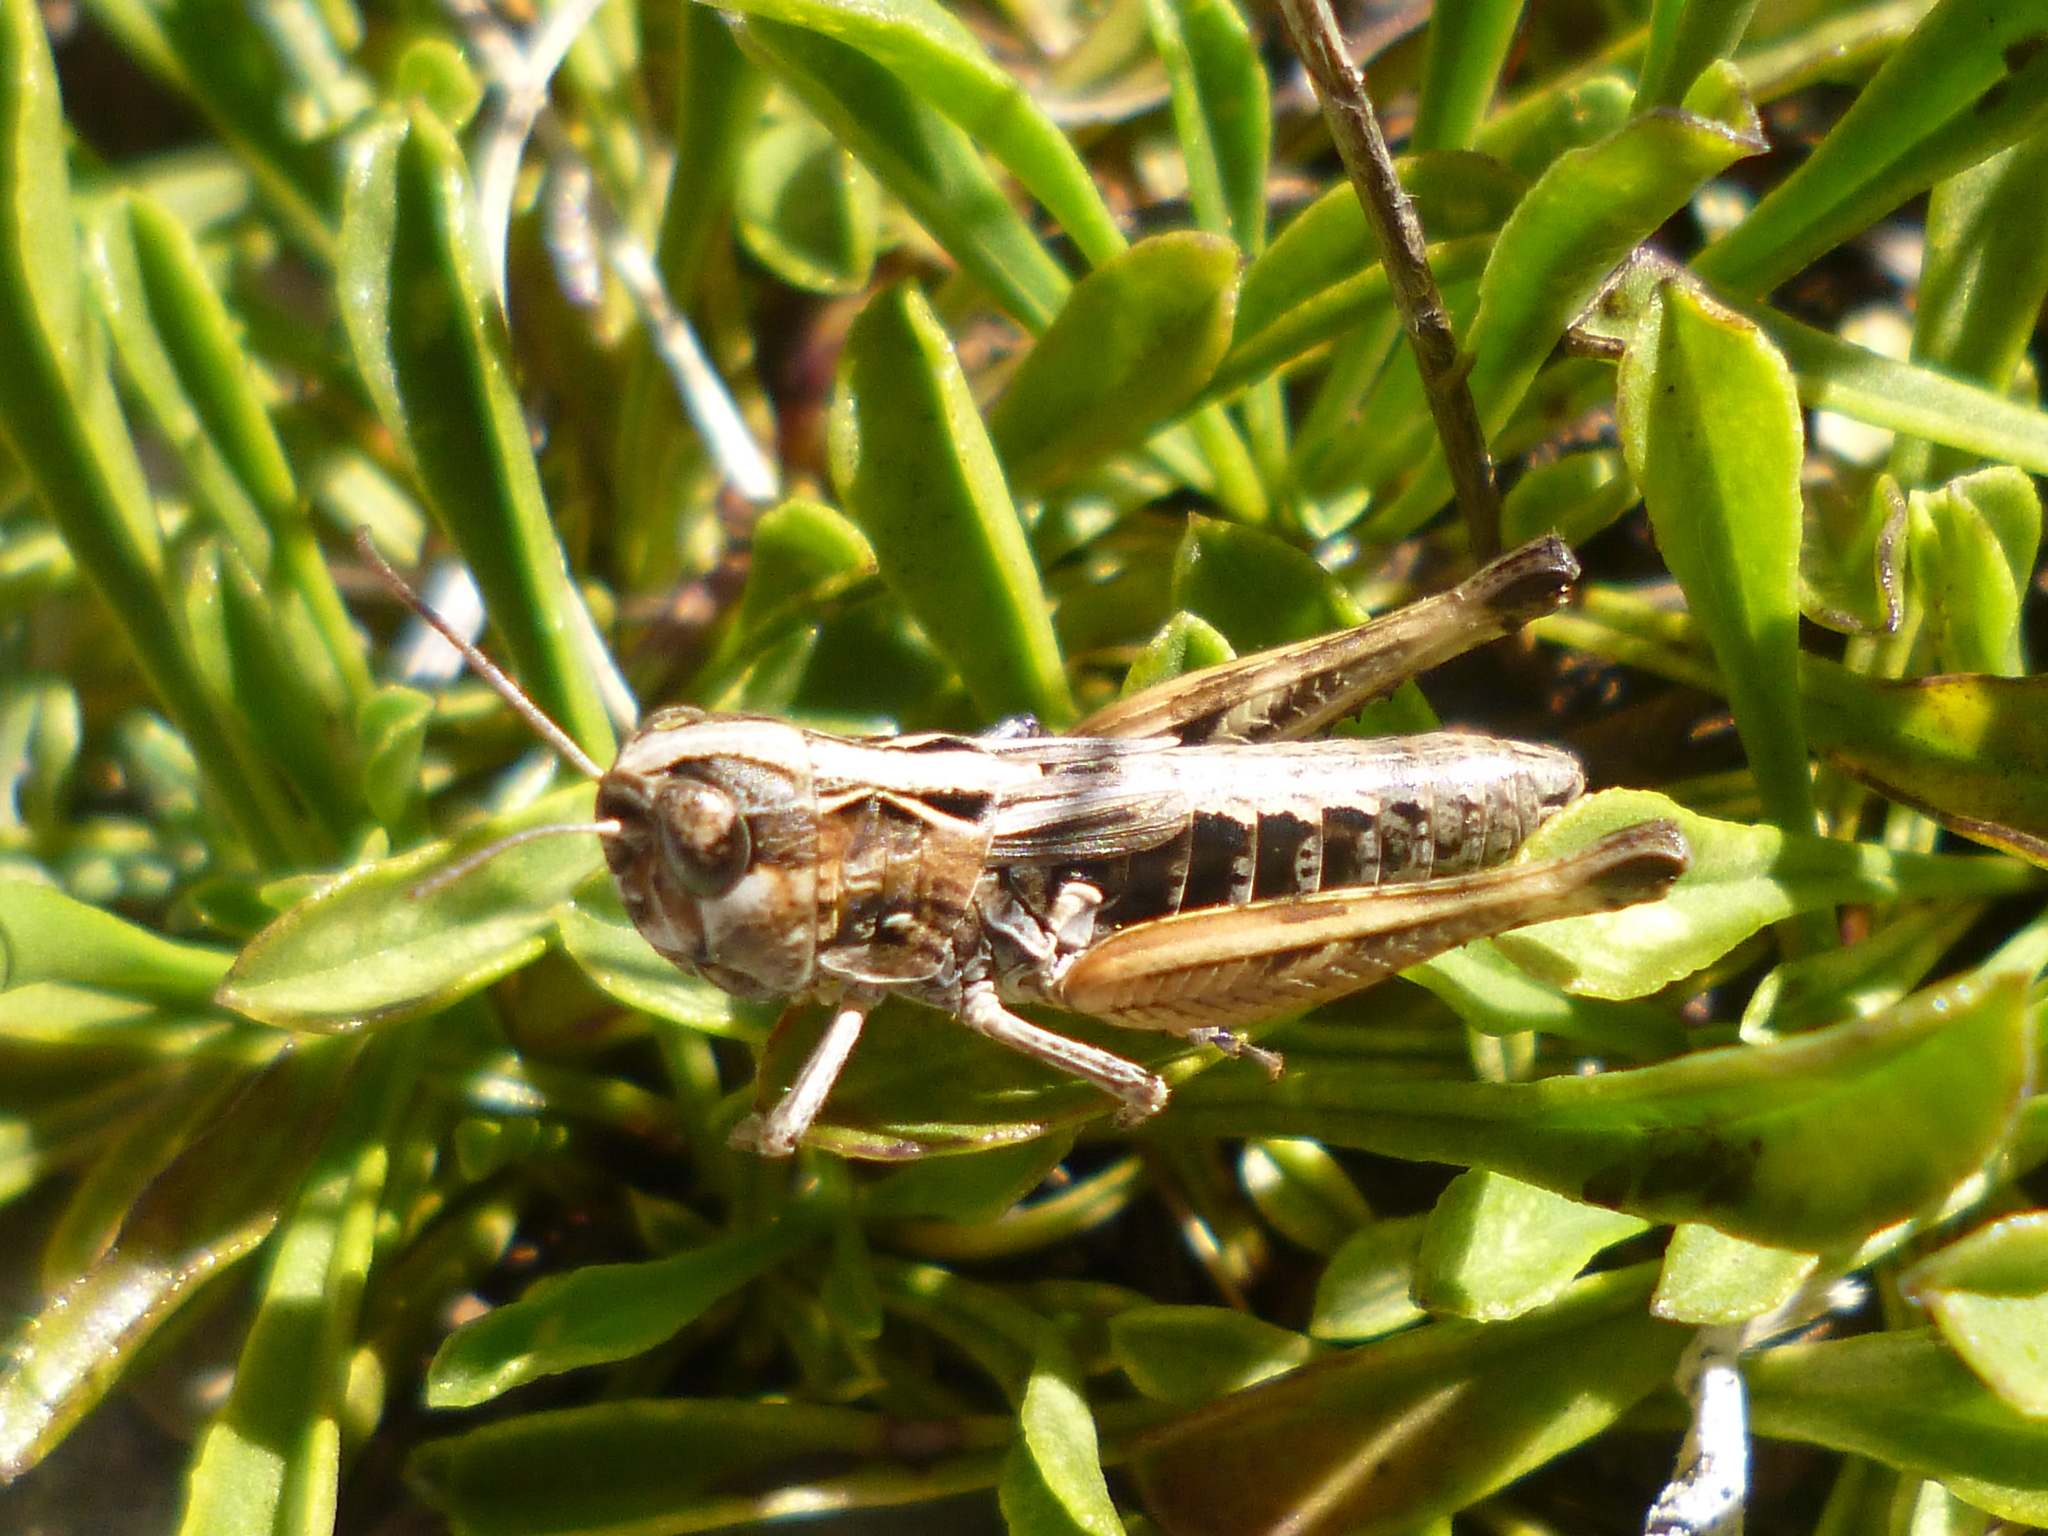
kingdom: Animalia
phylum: Arthropoda
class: Insecta
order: Orthoptera
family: Acrididae
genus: Rammeihippus
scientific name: Rammeihippus dinaricus
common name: Dinarian grasshopper
